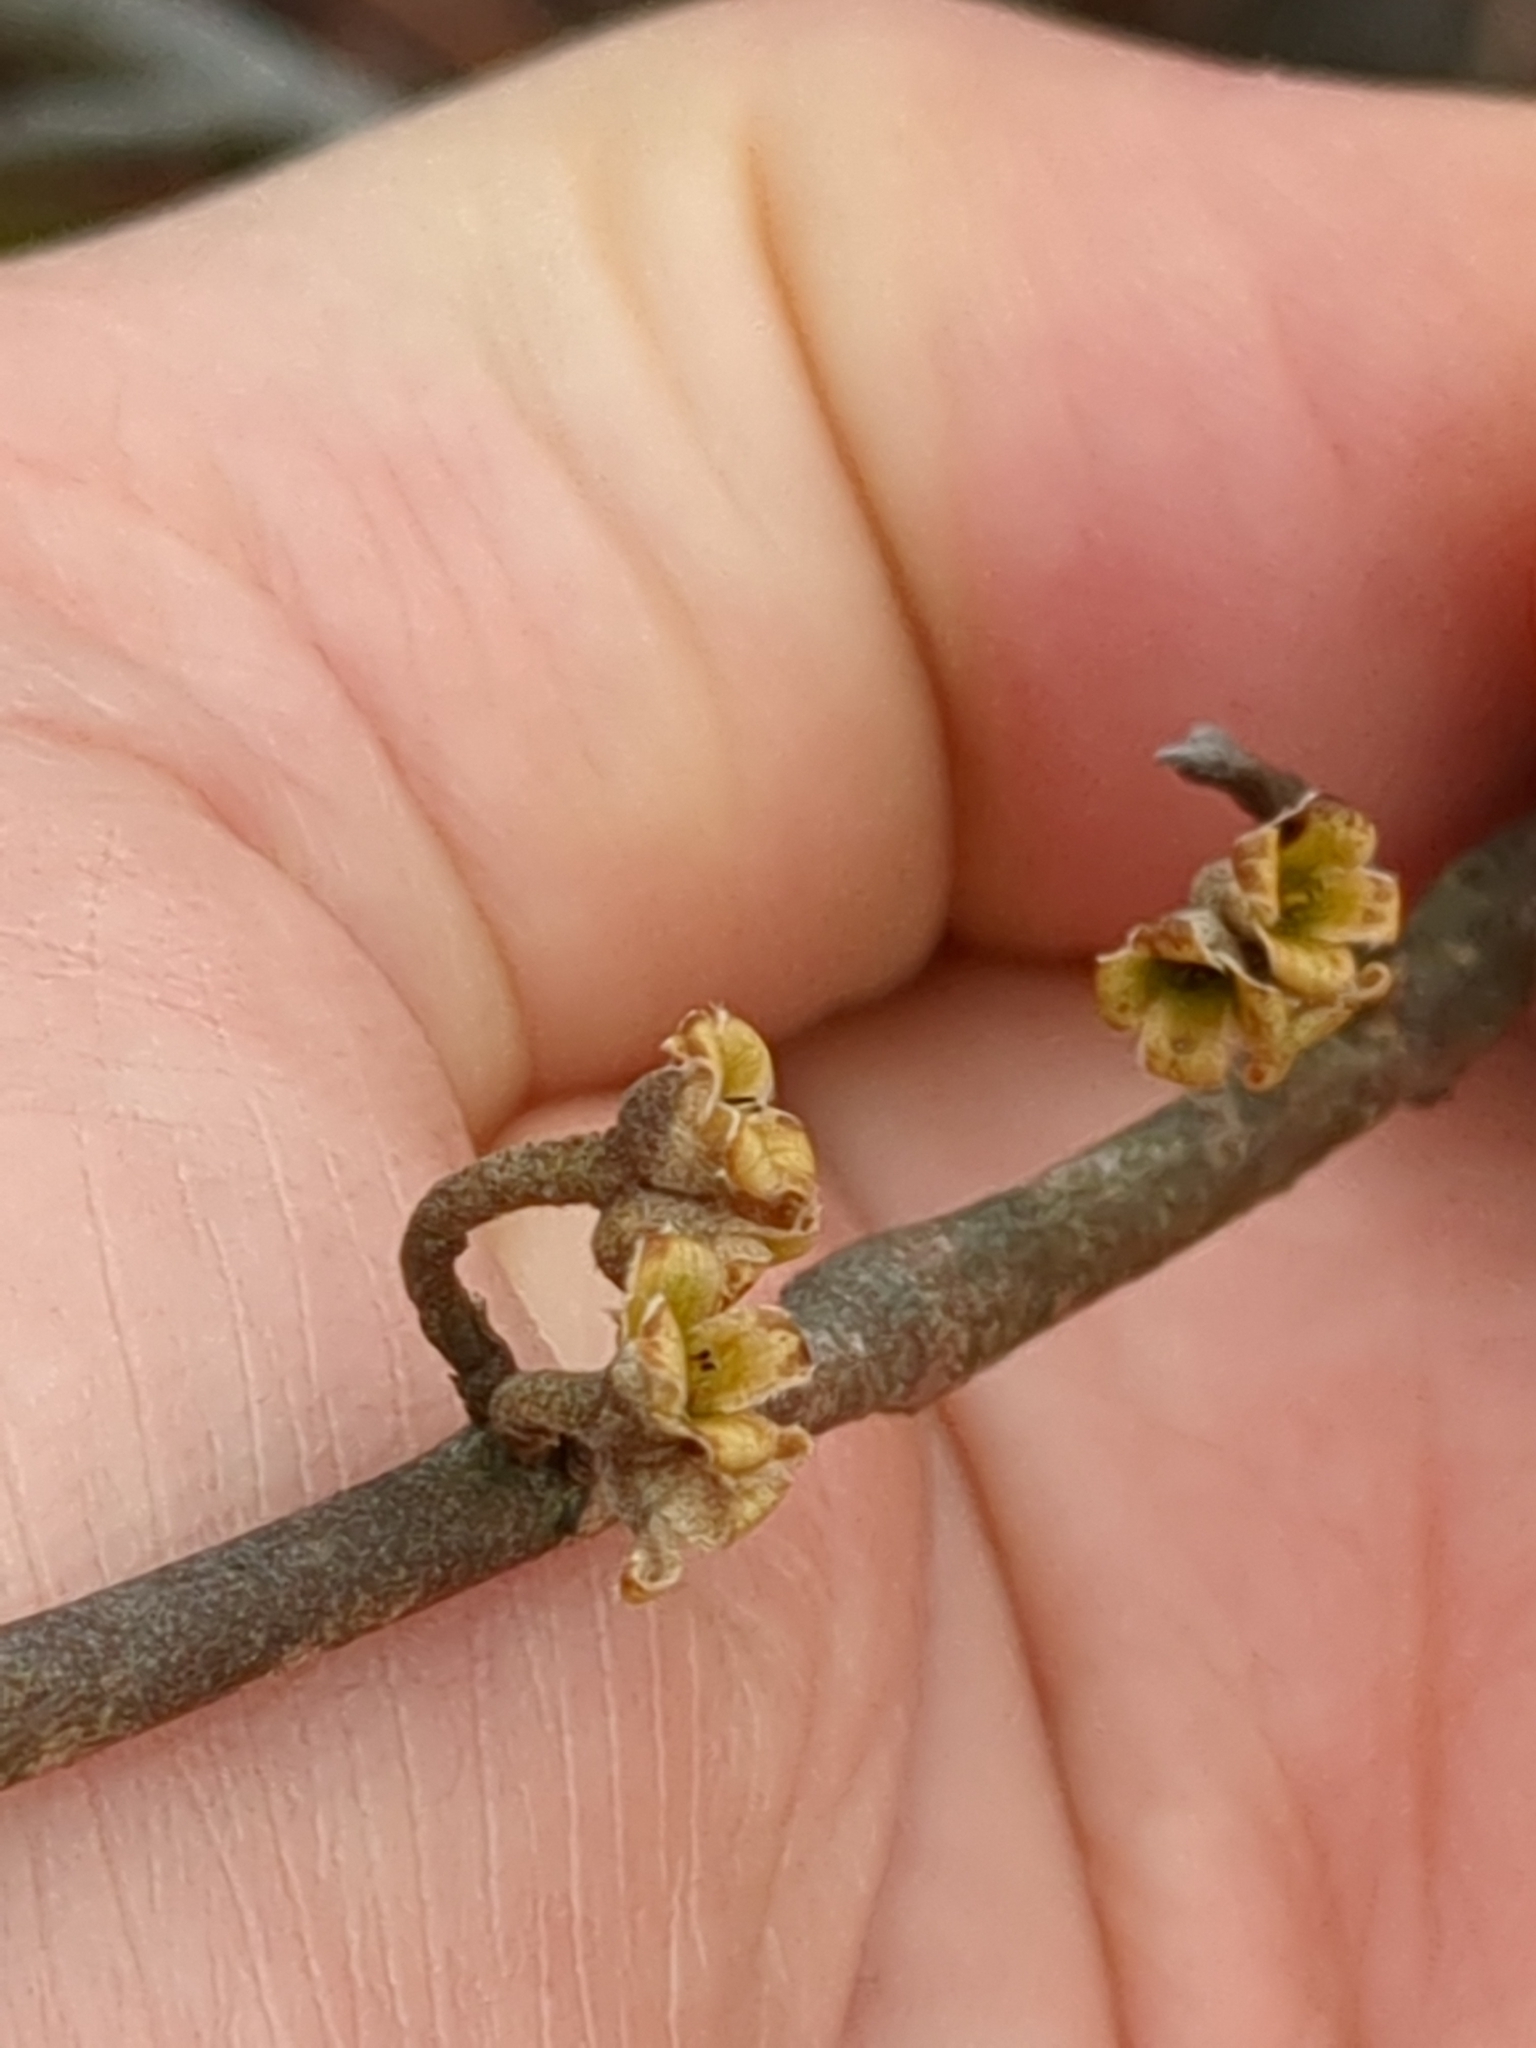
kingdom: Plantae
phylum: Tracheophyta
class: Magnoliopsida
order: Saxifragales
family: Hamamelidaceae
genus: Hamamelis
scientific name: Hamamelis virginiana
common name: Witch-hazel
